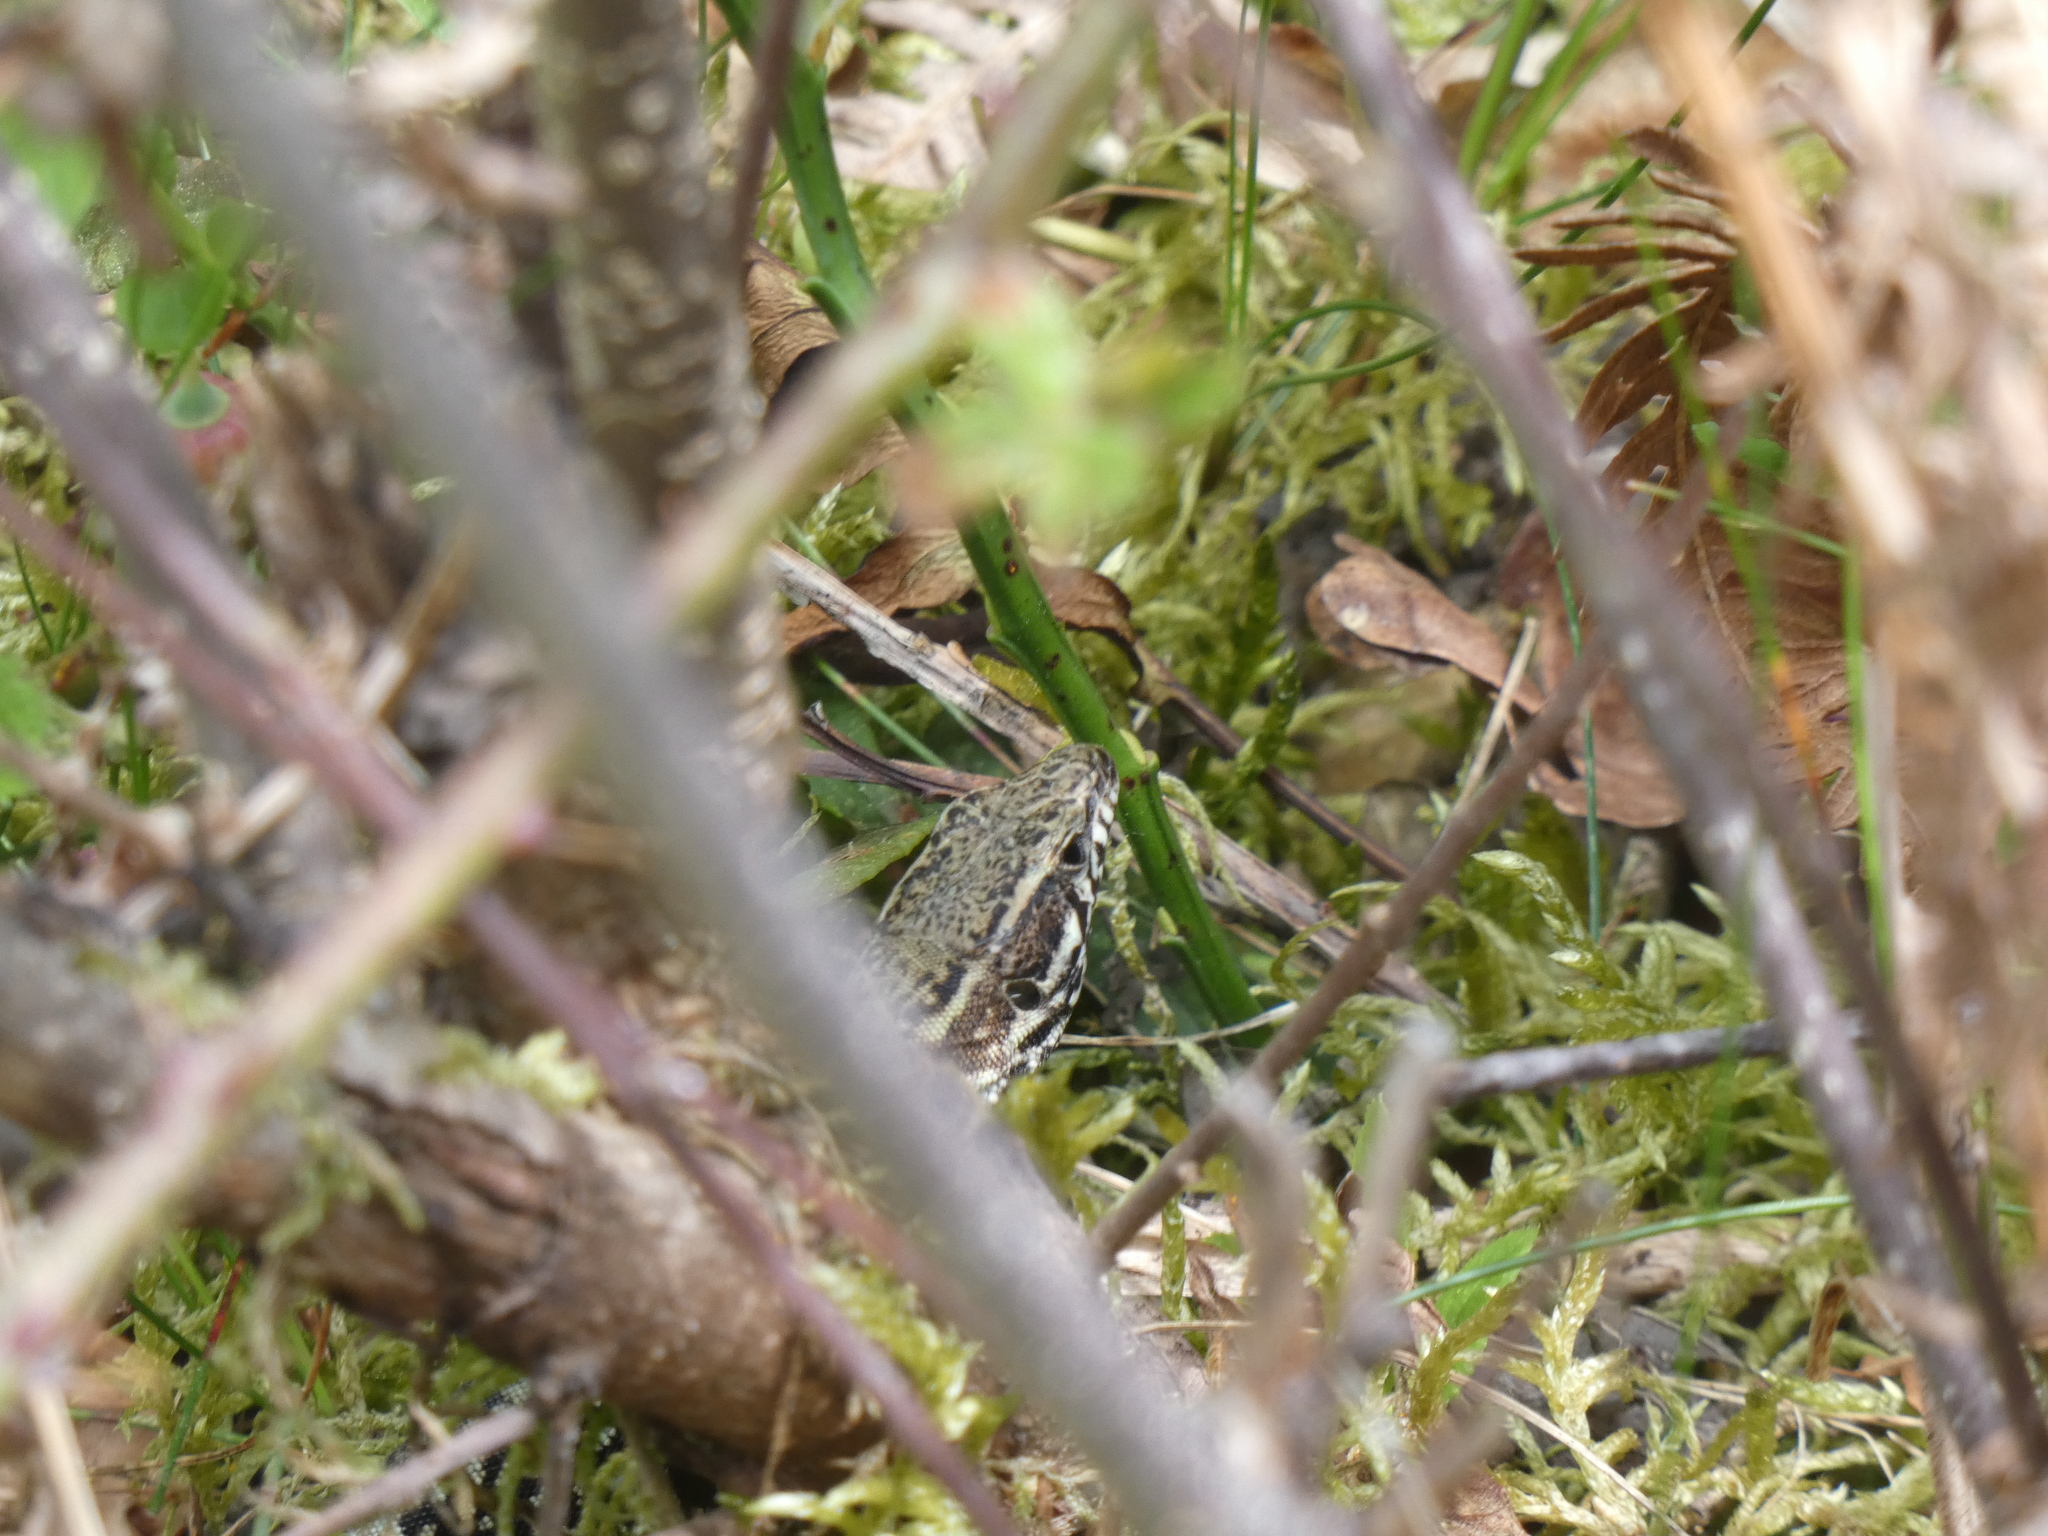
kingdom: Animalia
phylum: Chordata
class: Squamata
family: Lacertidae
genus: Podarcis
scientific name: Podarcis muralis
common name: Common wall lizard
